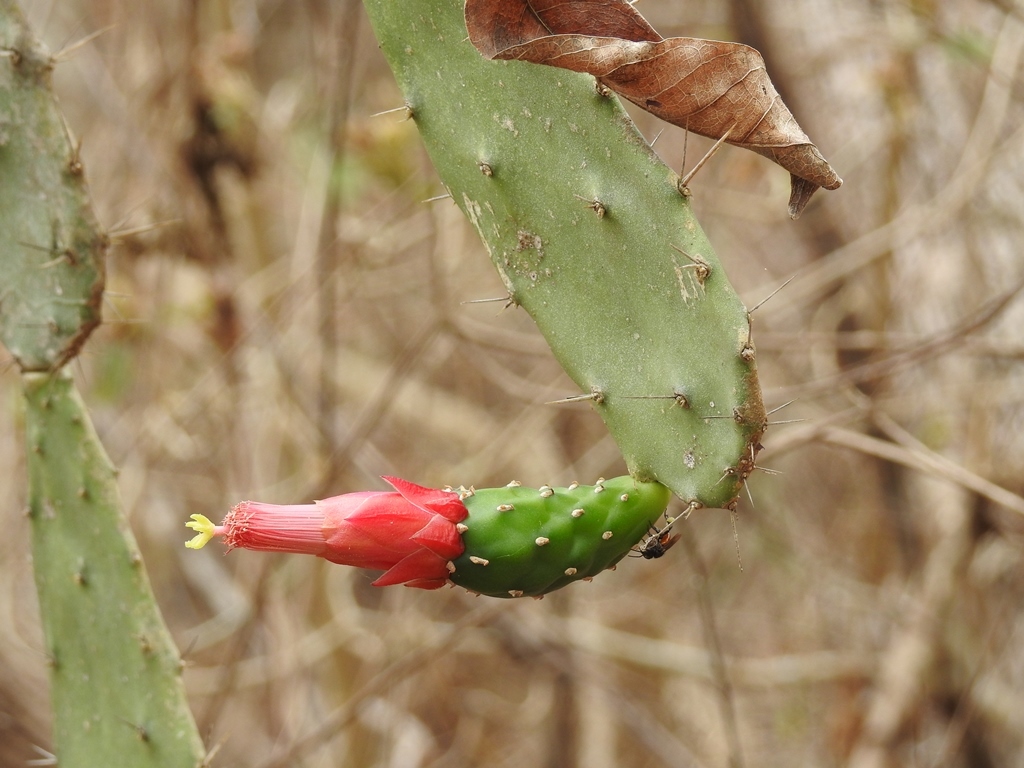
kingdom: Plantae
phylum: Tracheophyta
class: Magnoliopsida
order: Caryophyllales
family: Cactaceae
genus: Opuntia
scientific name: Opuntia dejecta
